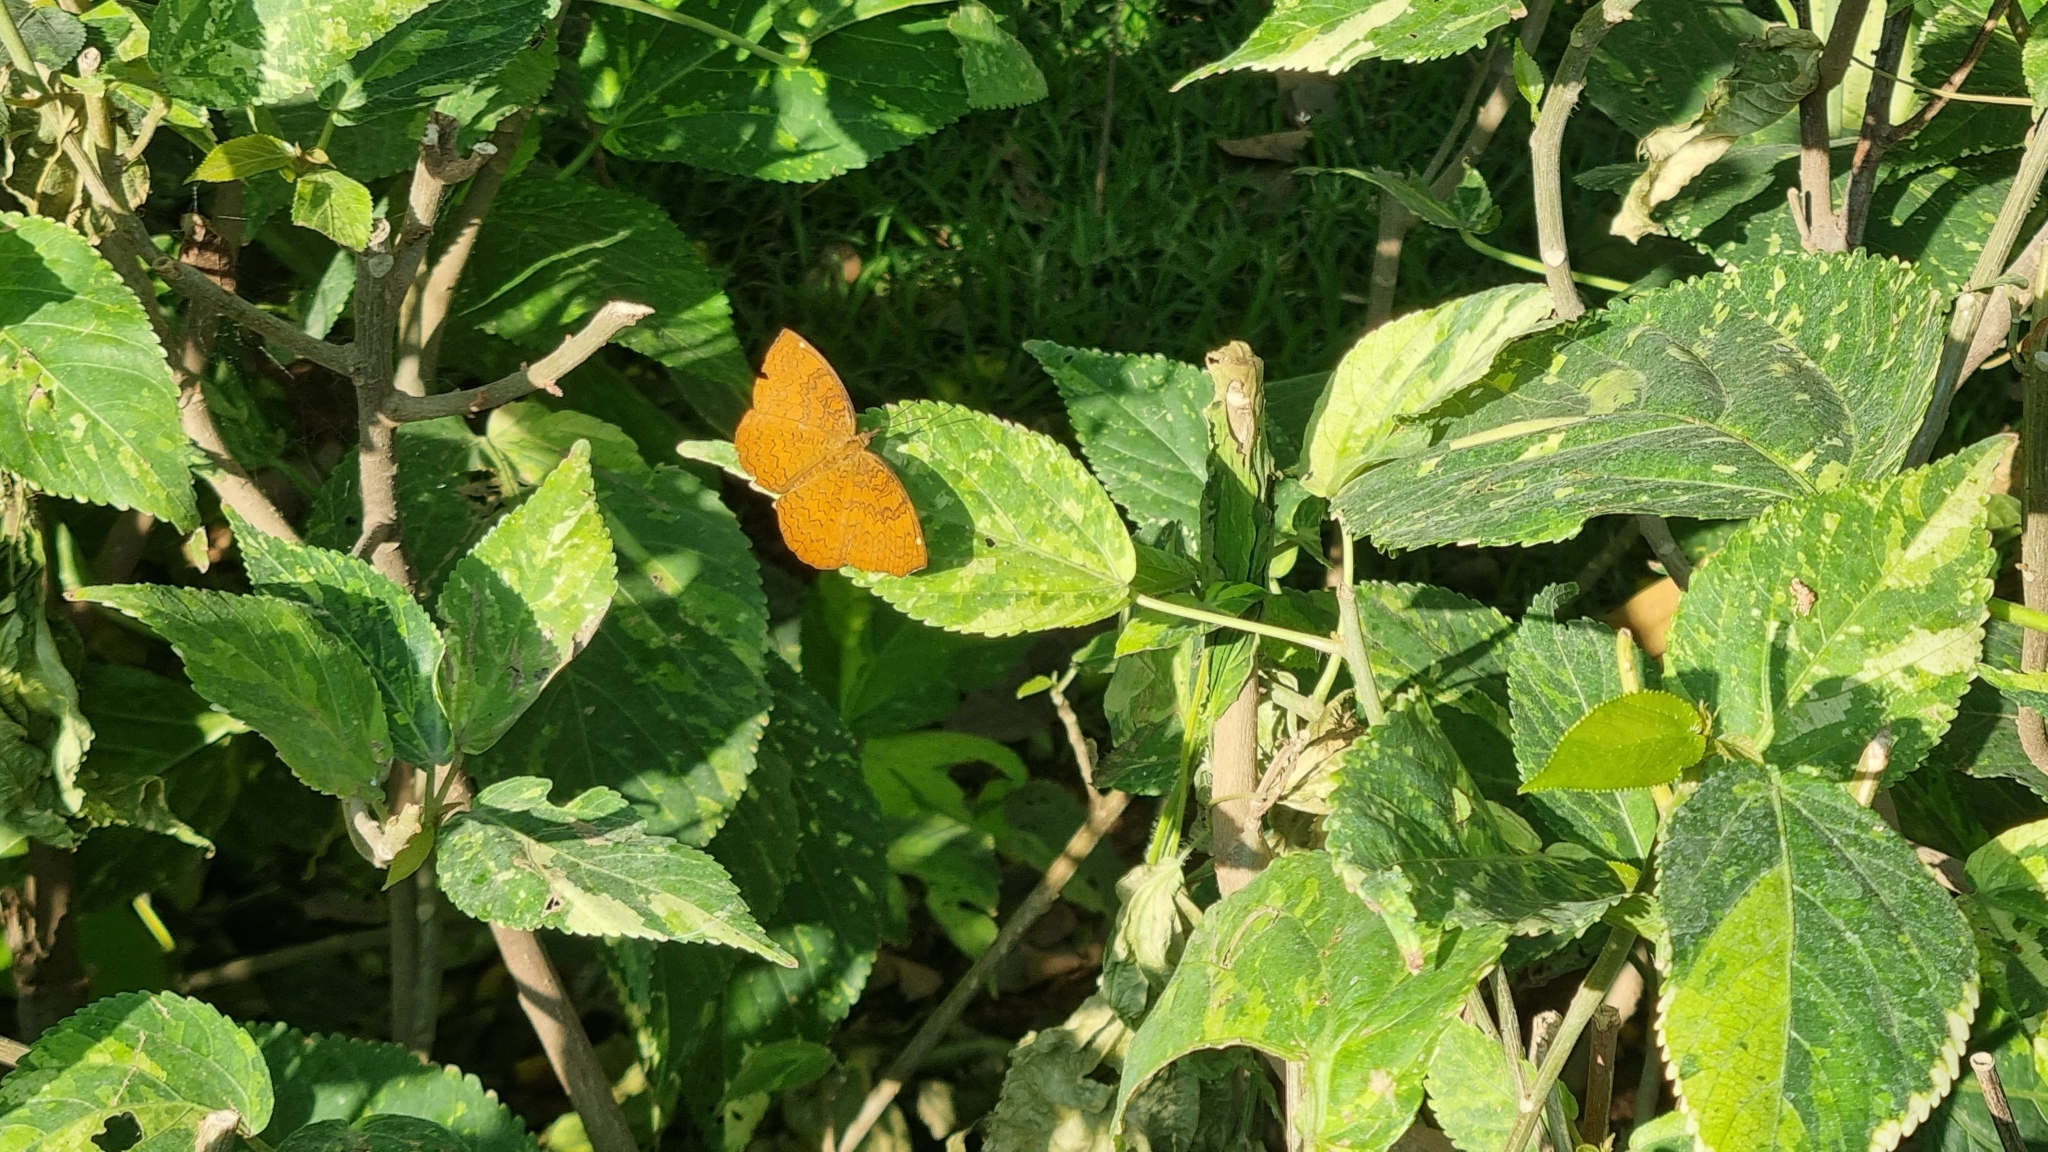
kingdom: Animalia
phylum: Arthropoda
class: Insecta
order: Lepidoptera
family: Nymphalidae
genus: Ariadne
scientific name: Ariadne merione
